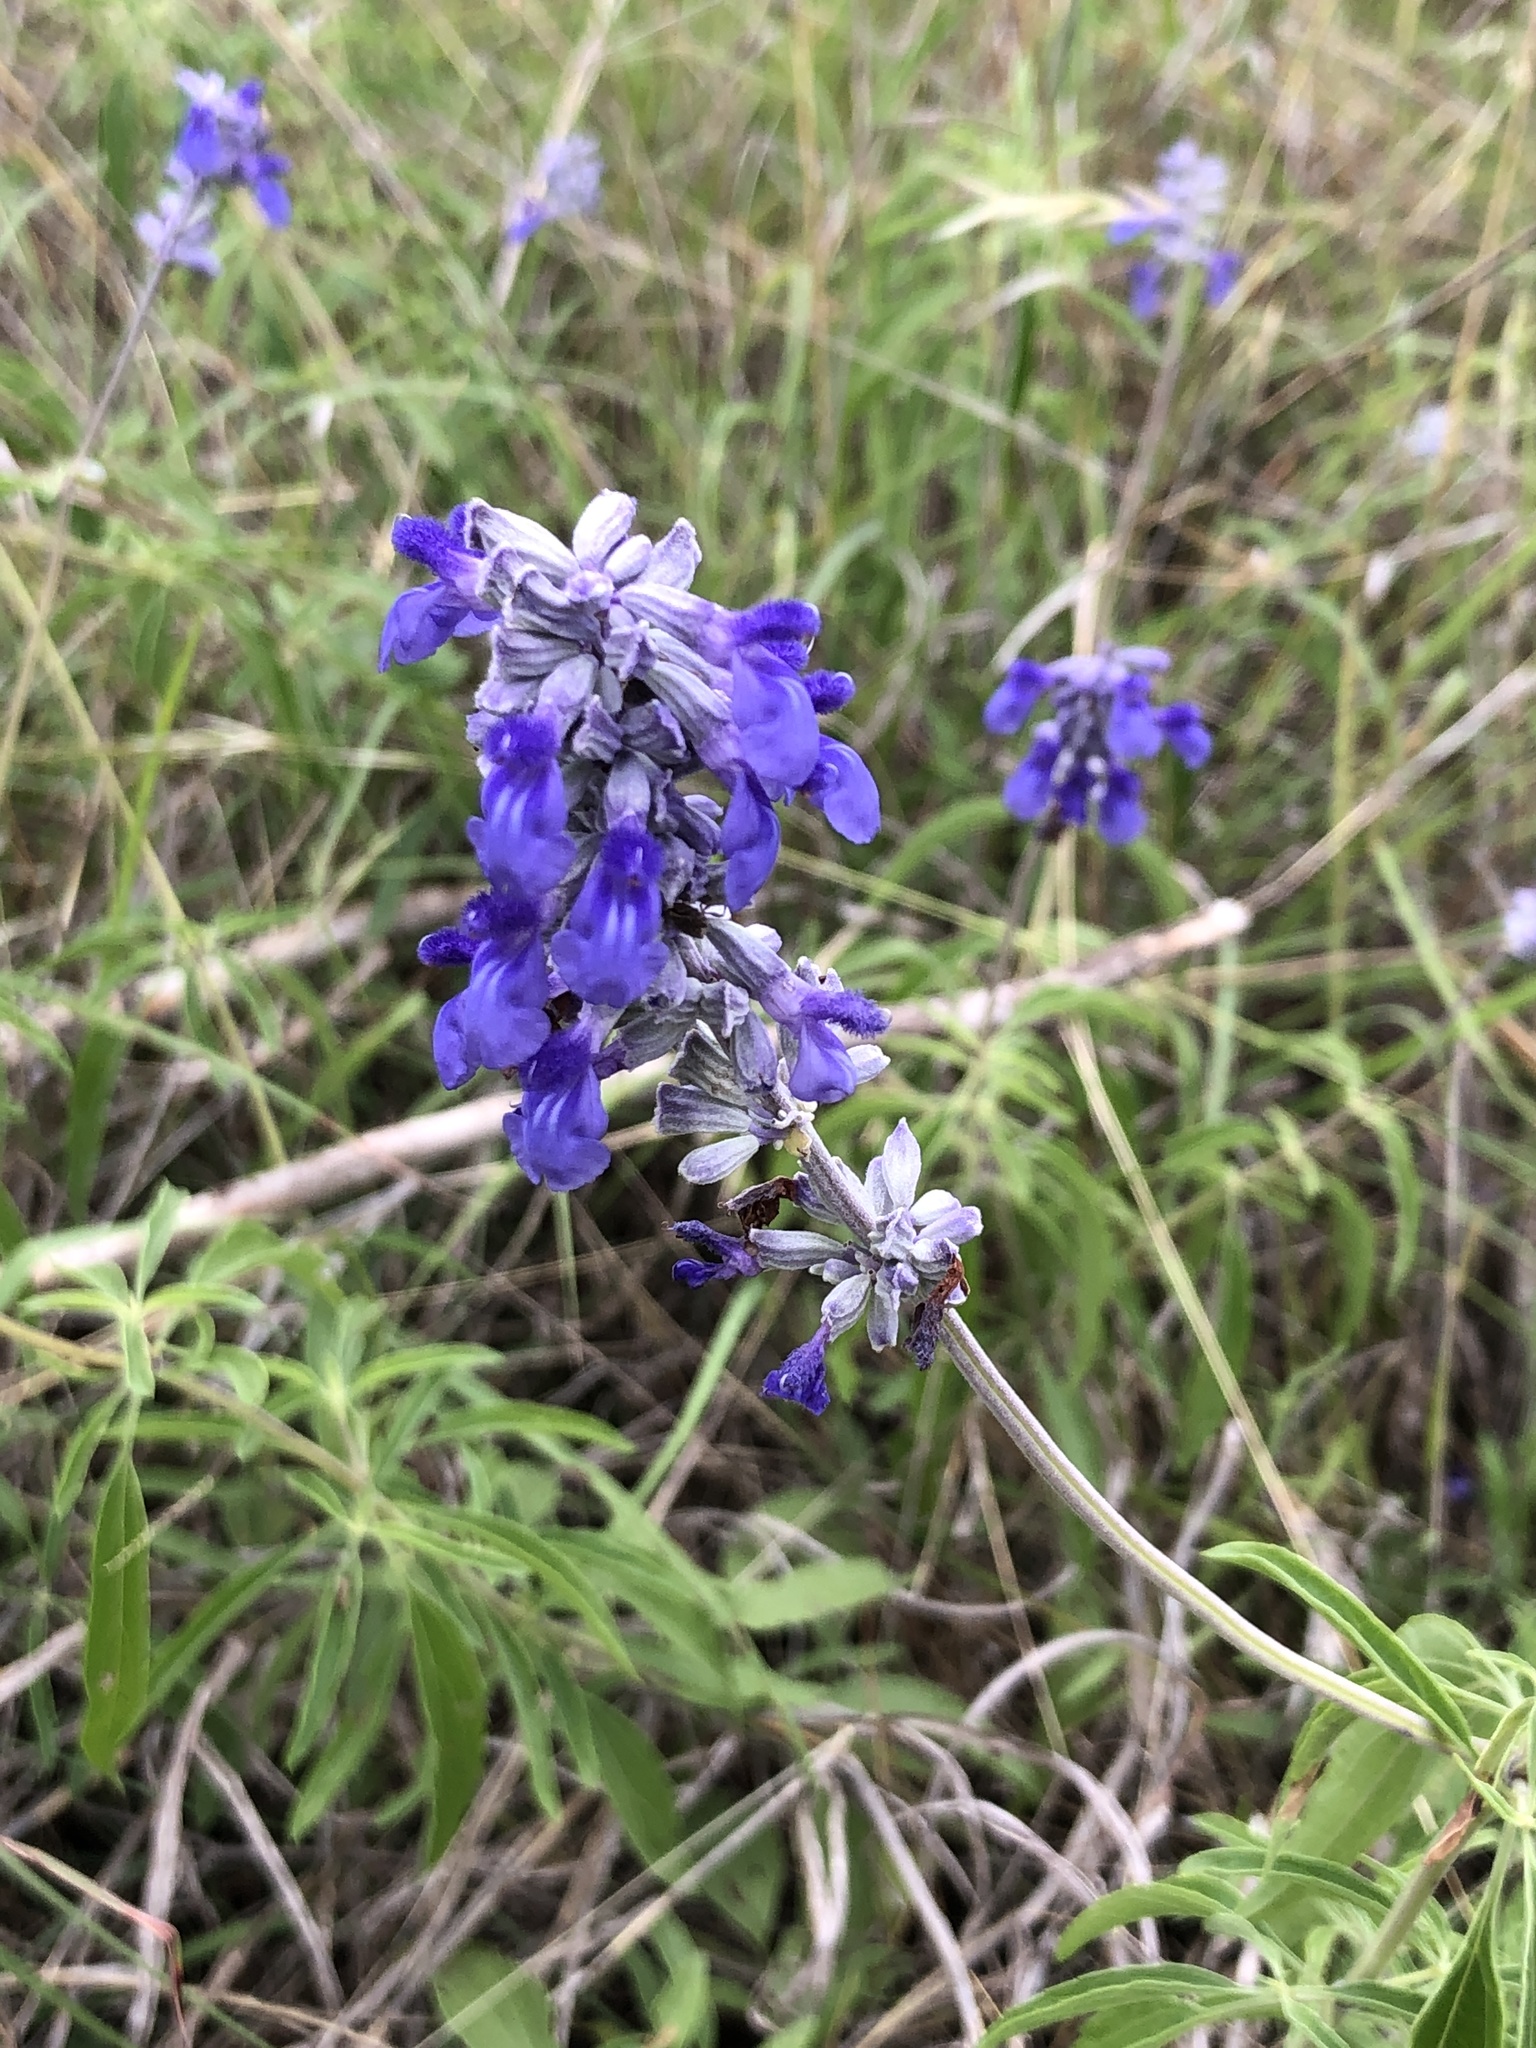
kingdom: Plantae
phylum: Tracheophyta
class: Magnoliopsida
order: Lamiales
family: Lamiaceae
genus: Salvia
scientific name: Salvia farinacea
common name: Mealy sage
